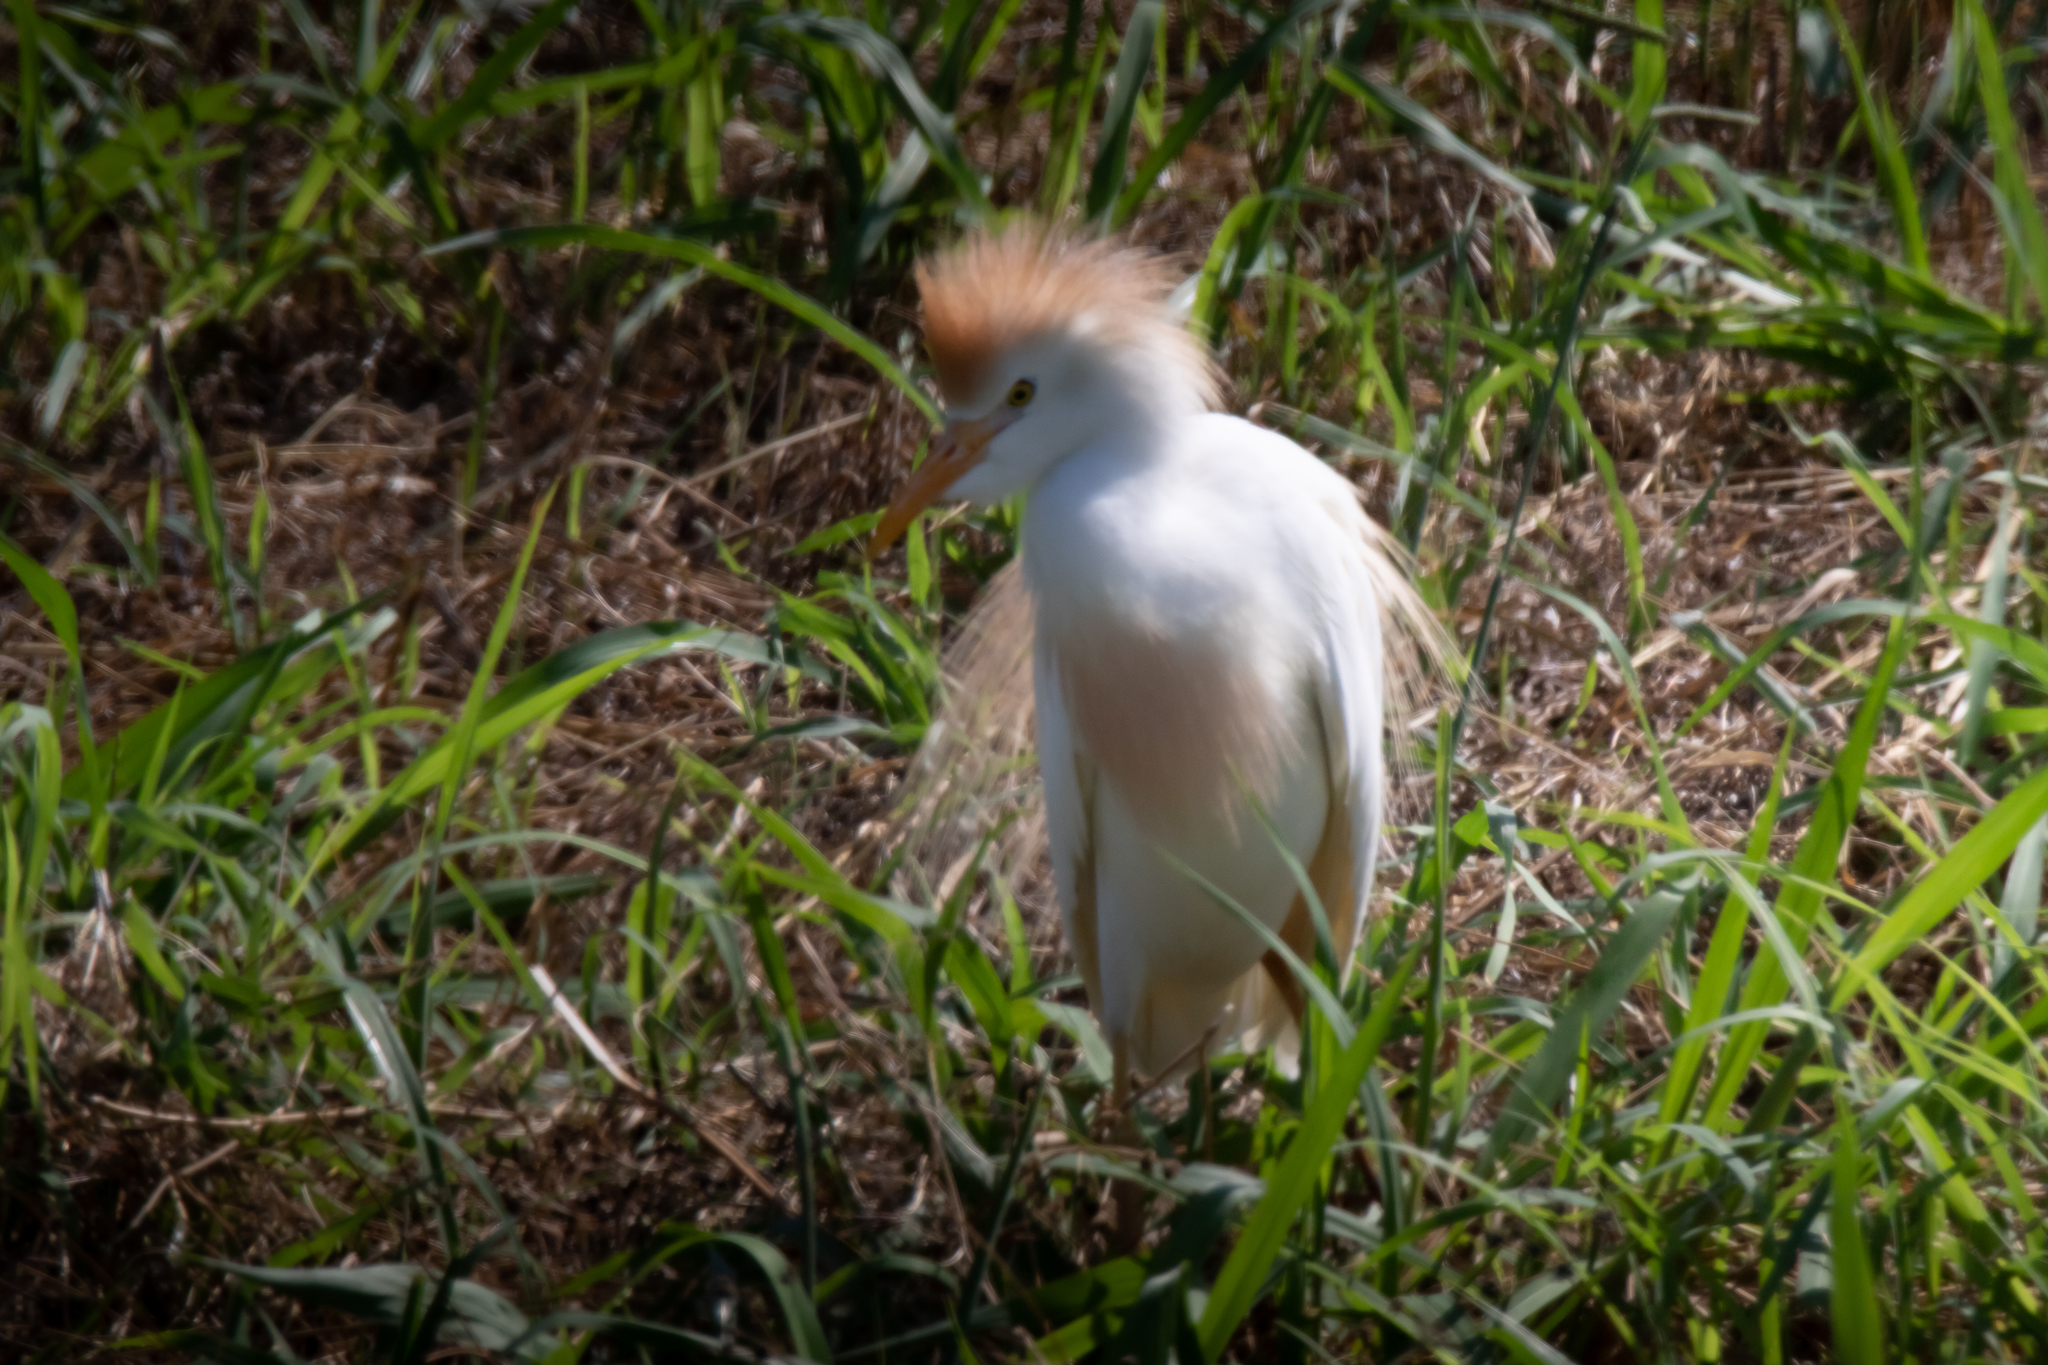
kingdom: Animalia
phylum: Chordata
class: Aves
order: Pelecaniformes
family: Ardeidae
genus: Bubulcus
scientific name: Bubulcus ibis
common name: Cattle egret
